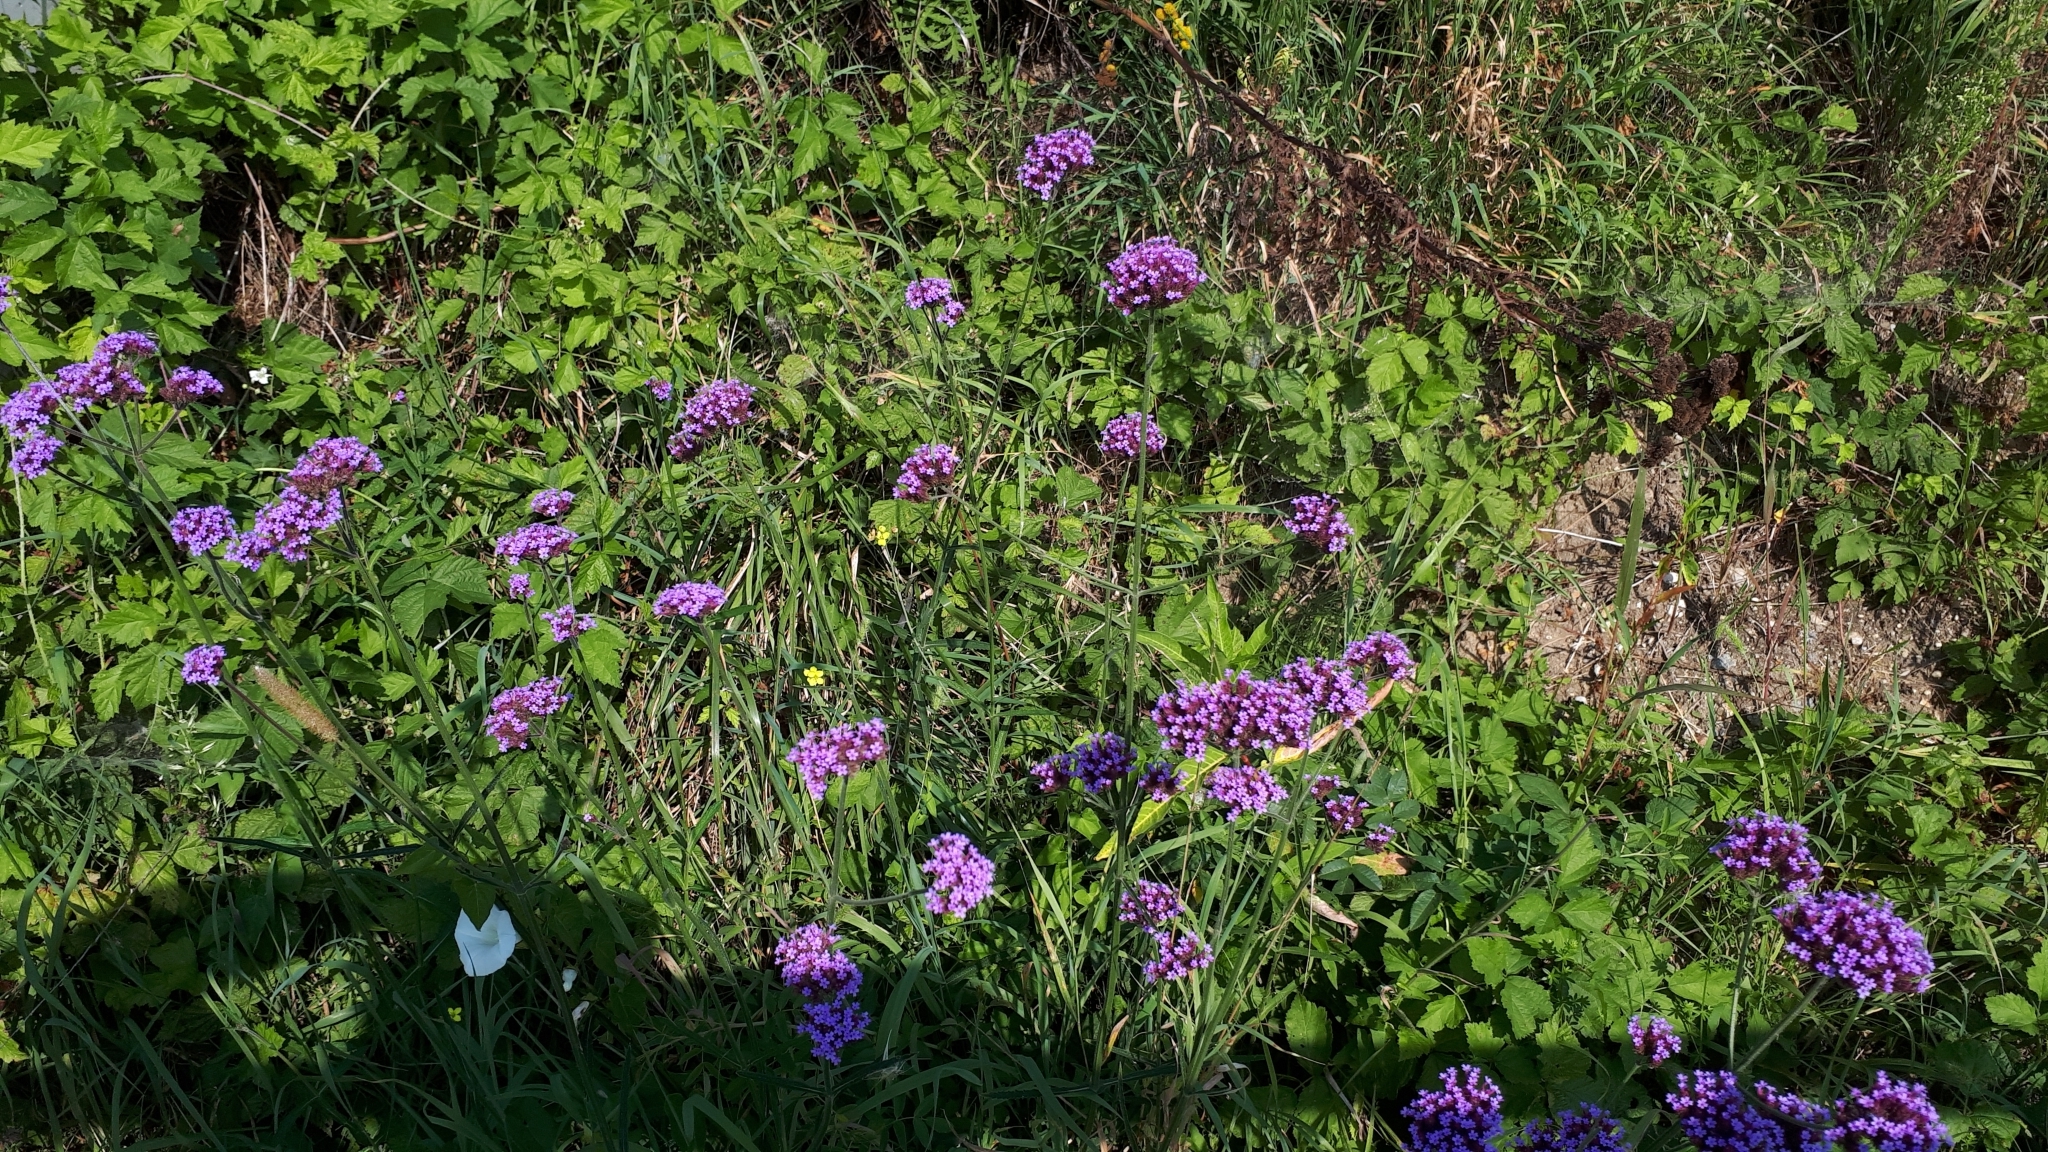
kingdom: Plantae
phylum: Tracheophyta
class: Magnoliopsida
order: Lamiales
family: Verbenaceae
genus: Verbena
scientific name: Verbena bonariensis
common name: Purpletop vervain
